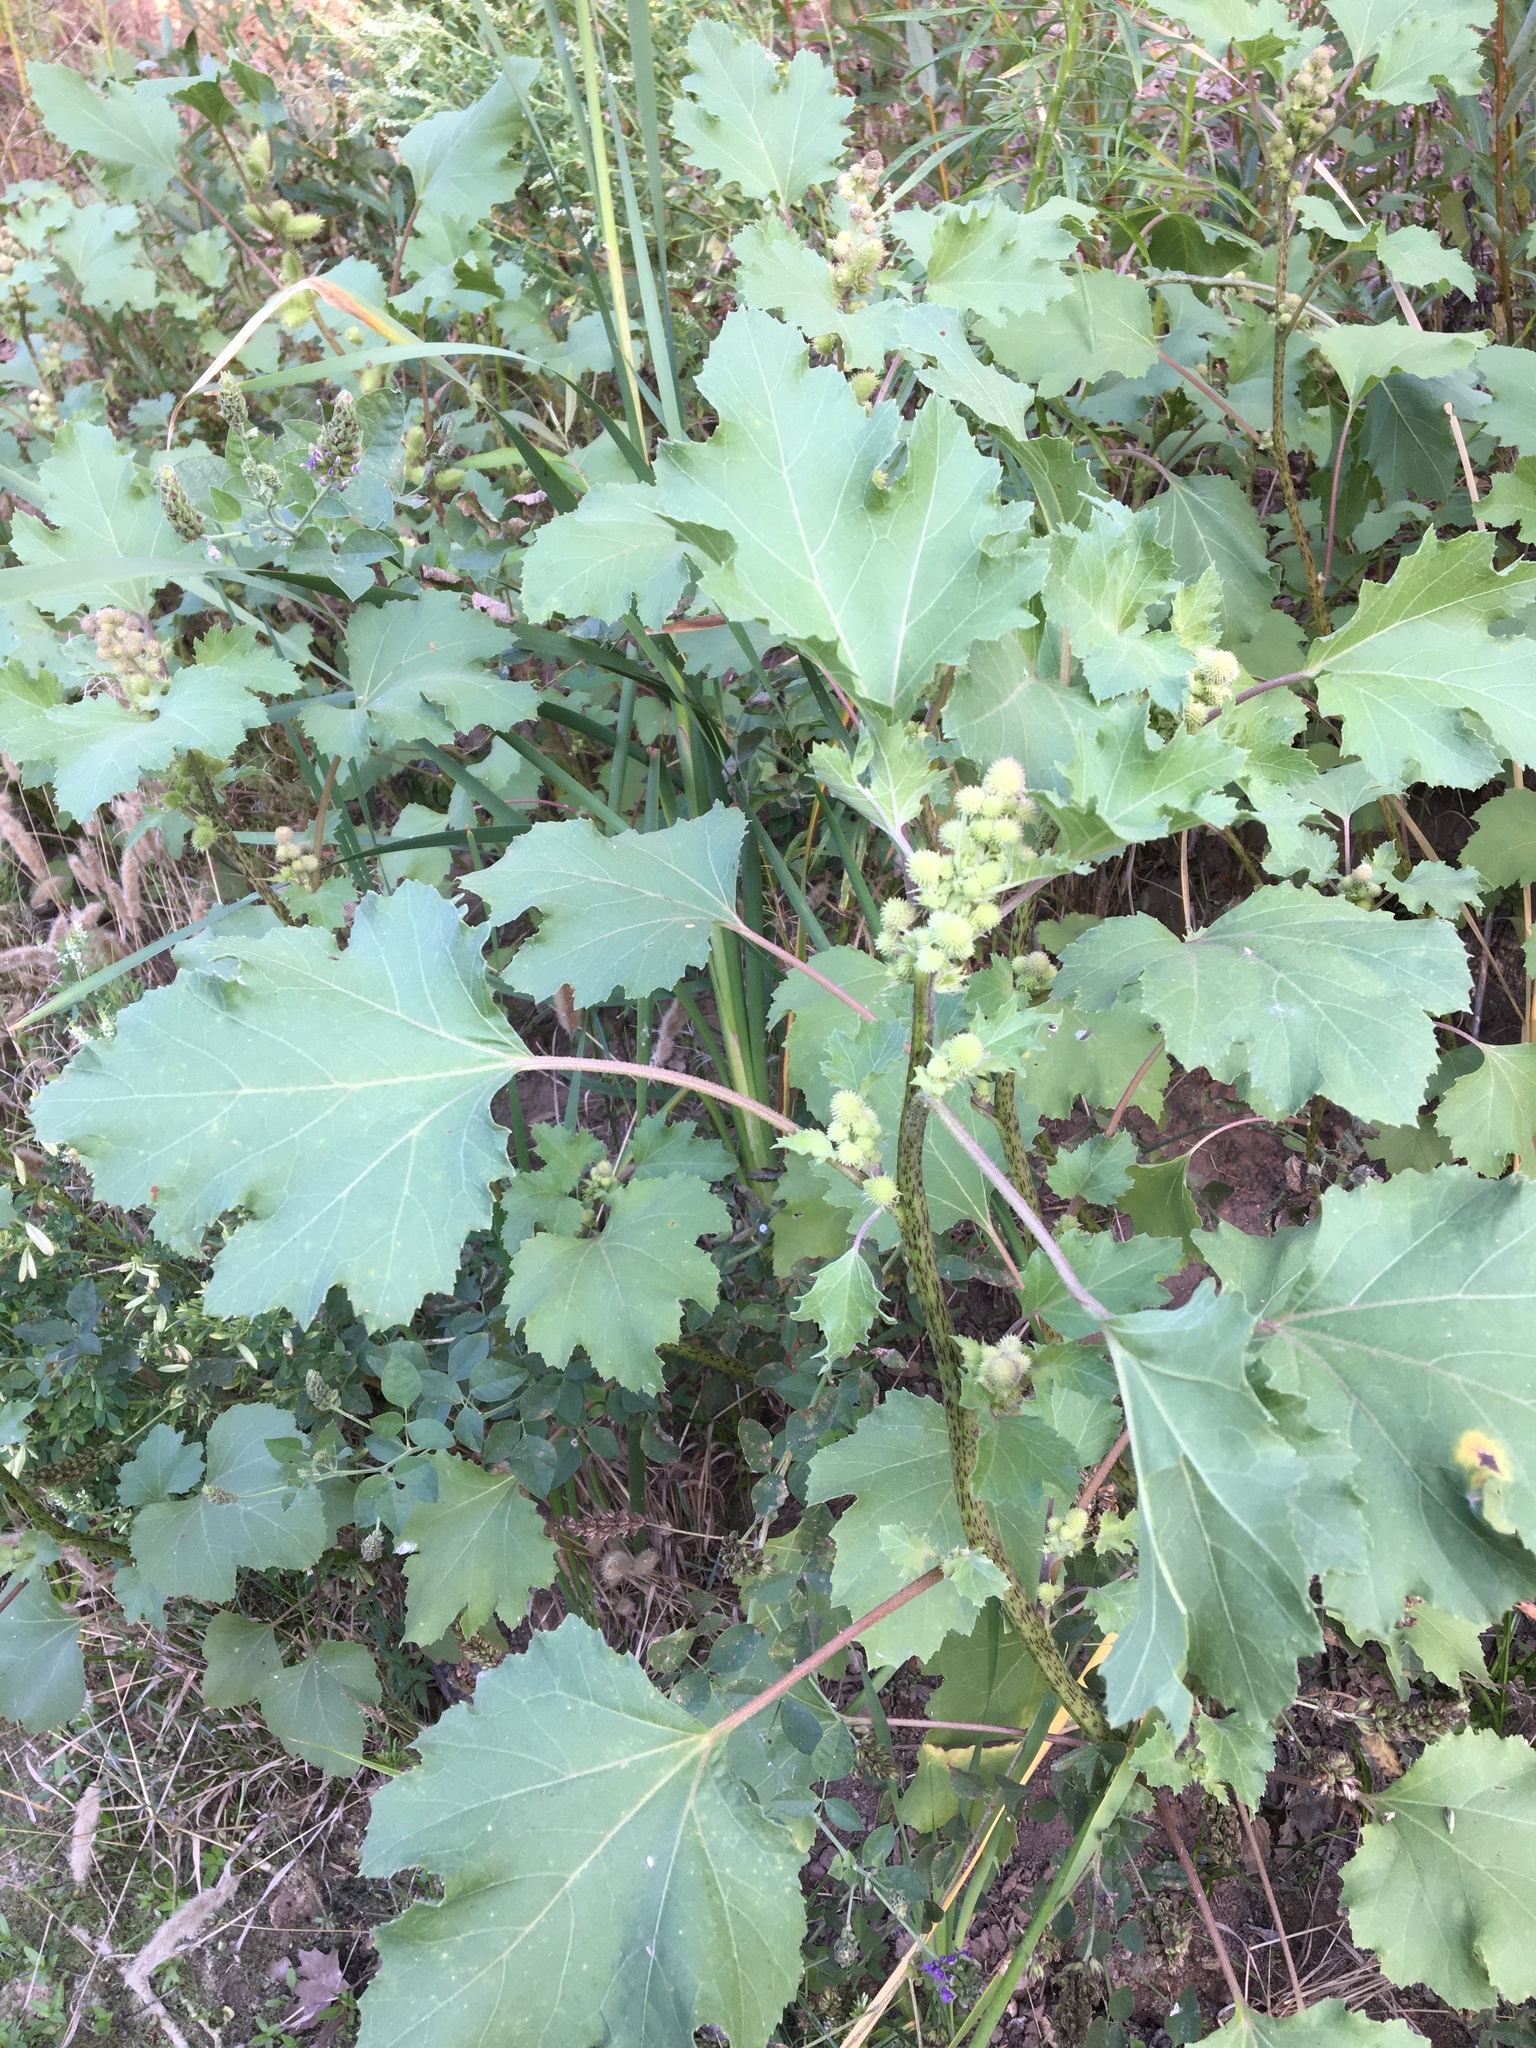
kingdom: Plantae
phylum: Tracheophyta
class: Magnoliopsida
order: Asterales
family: Asteraceae
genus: Xanthium
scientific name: Xanthium strumarium
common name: Rough cocklebur
